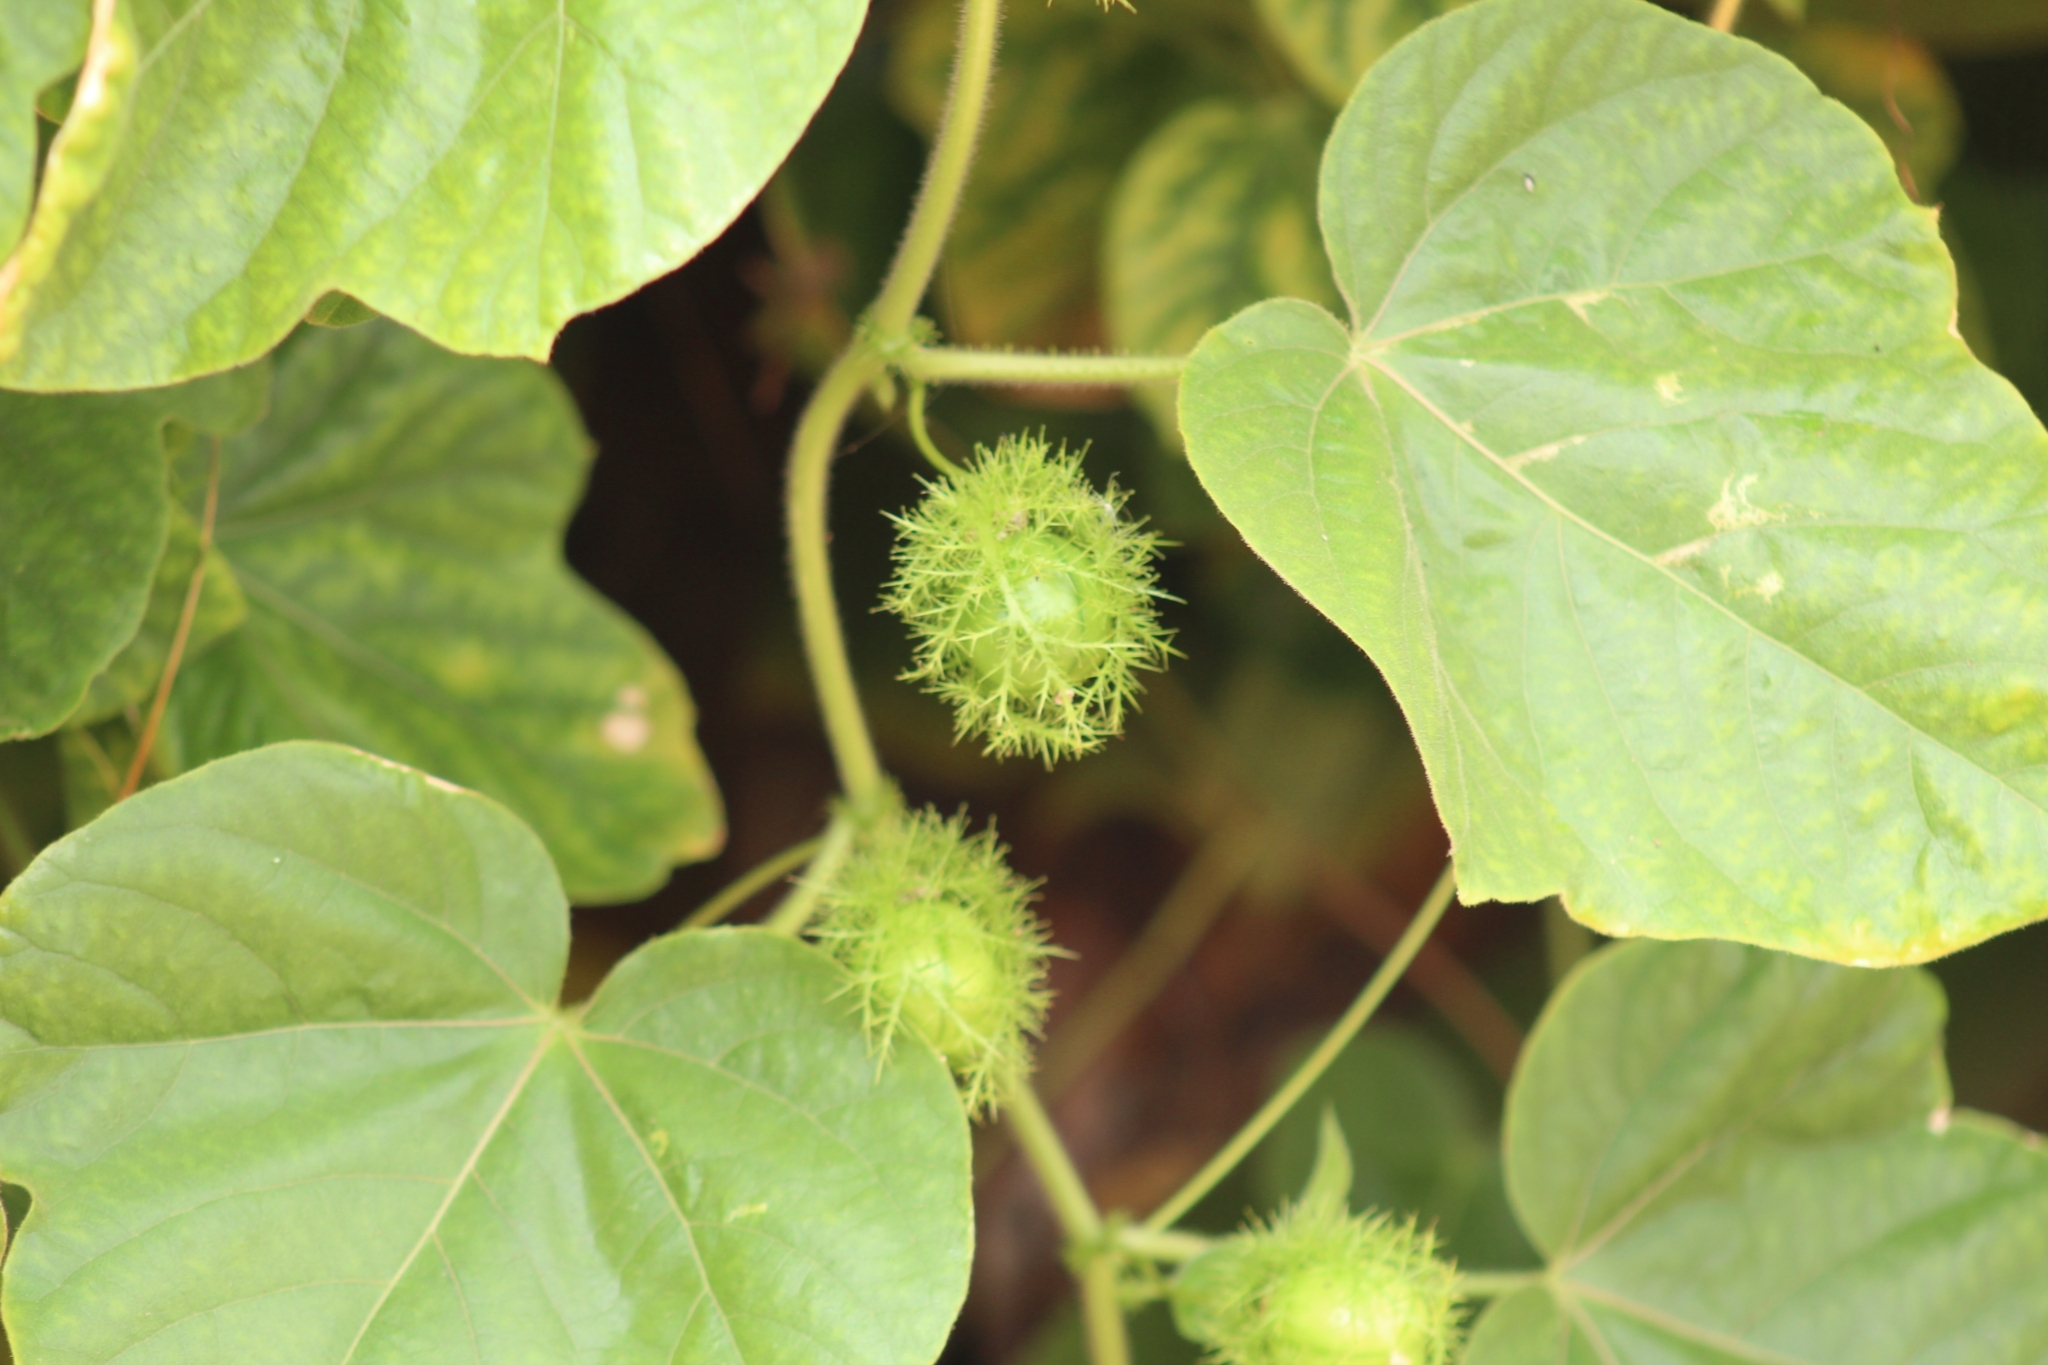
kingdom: Plantae
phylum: Tracheophyta
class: Magnoliopsida
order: Malpighiales
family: Passifloraceae
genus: Passiflora
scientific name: Passiflora foetida
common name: Fetid passionflower
